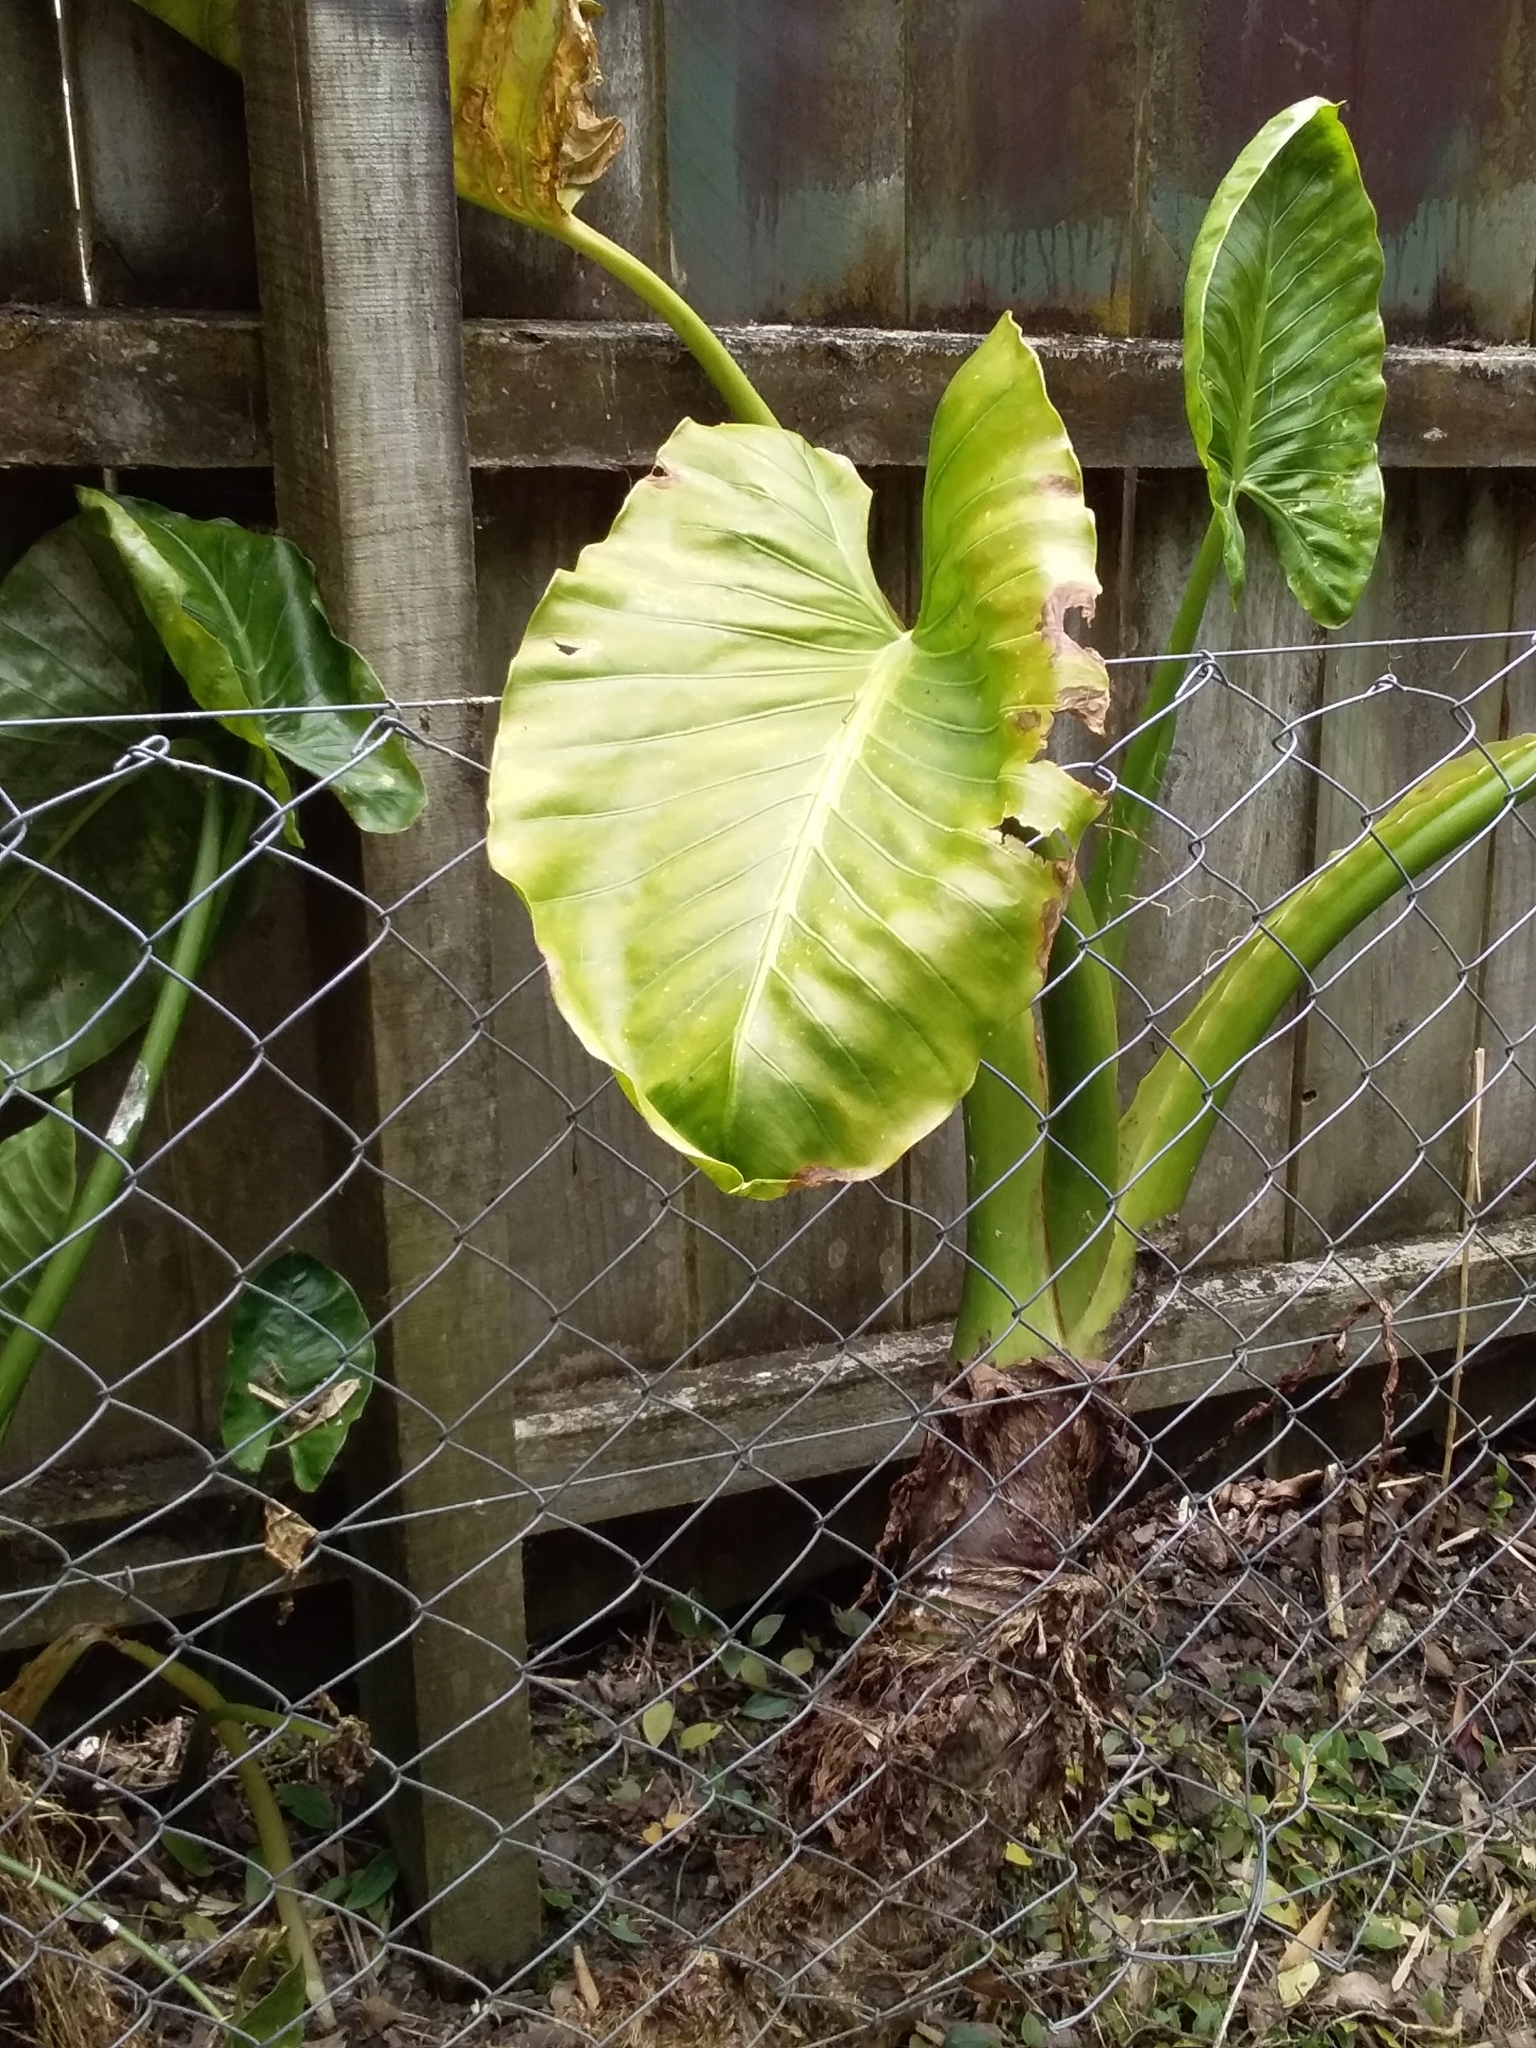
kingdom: Plantae
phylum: Tracheophyta
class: Liliopsida
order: Alismatales
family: Araceae
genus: Alocasia
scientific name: Alocasia brisbanensis
